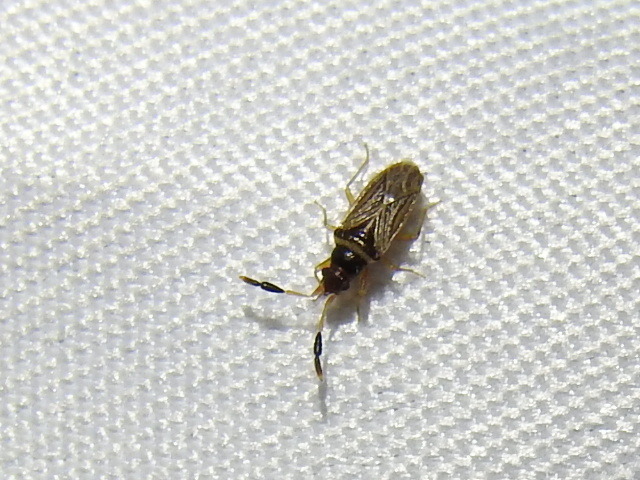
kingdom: Animalia
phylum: Arthropoda
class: Insecta
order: Hemiptera
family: Rhyparochromidae
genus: Ptochiomera
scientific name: Ptochiomera nodosa
